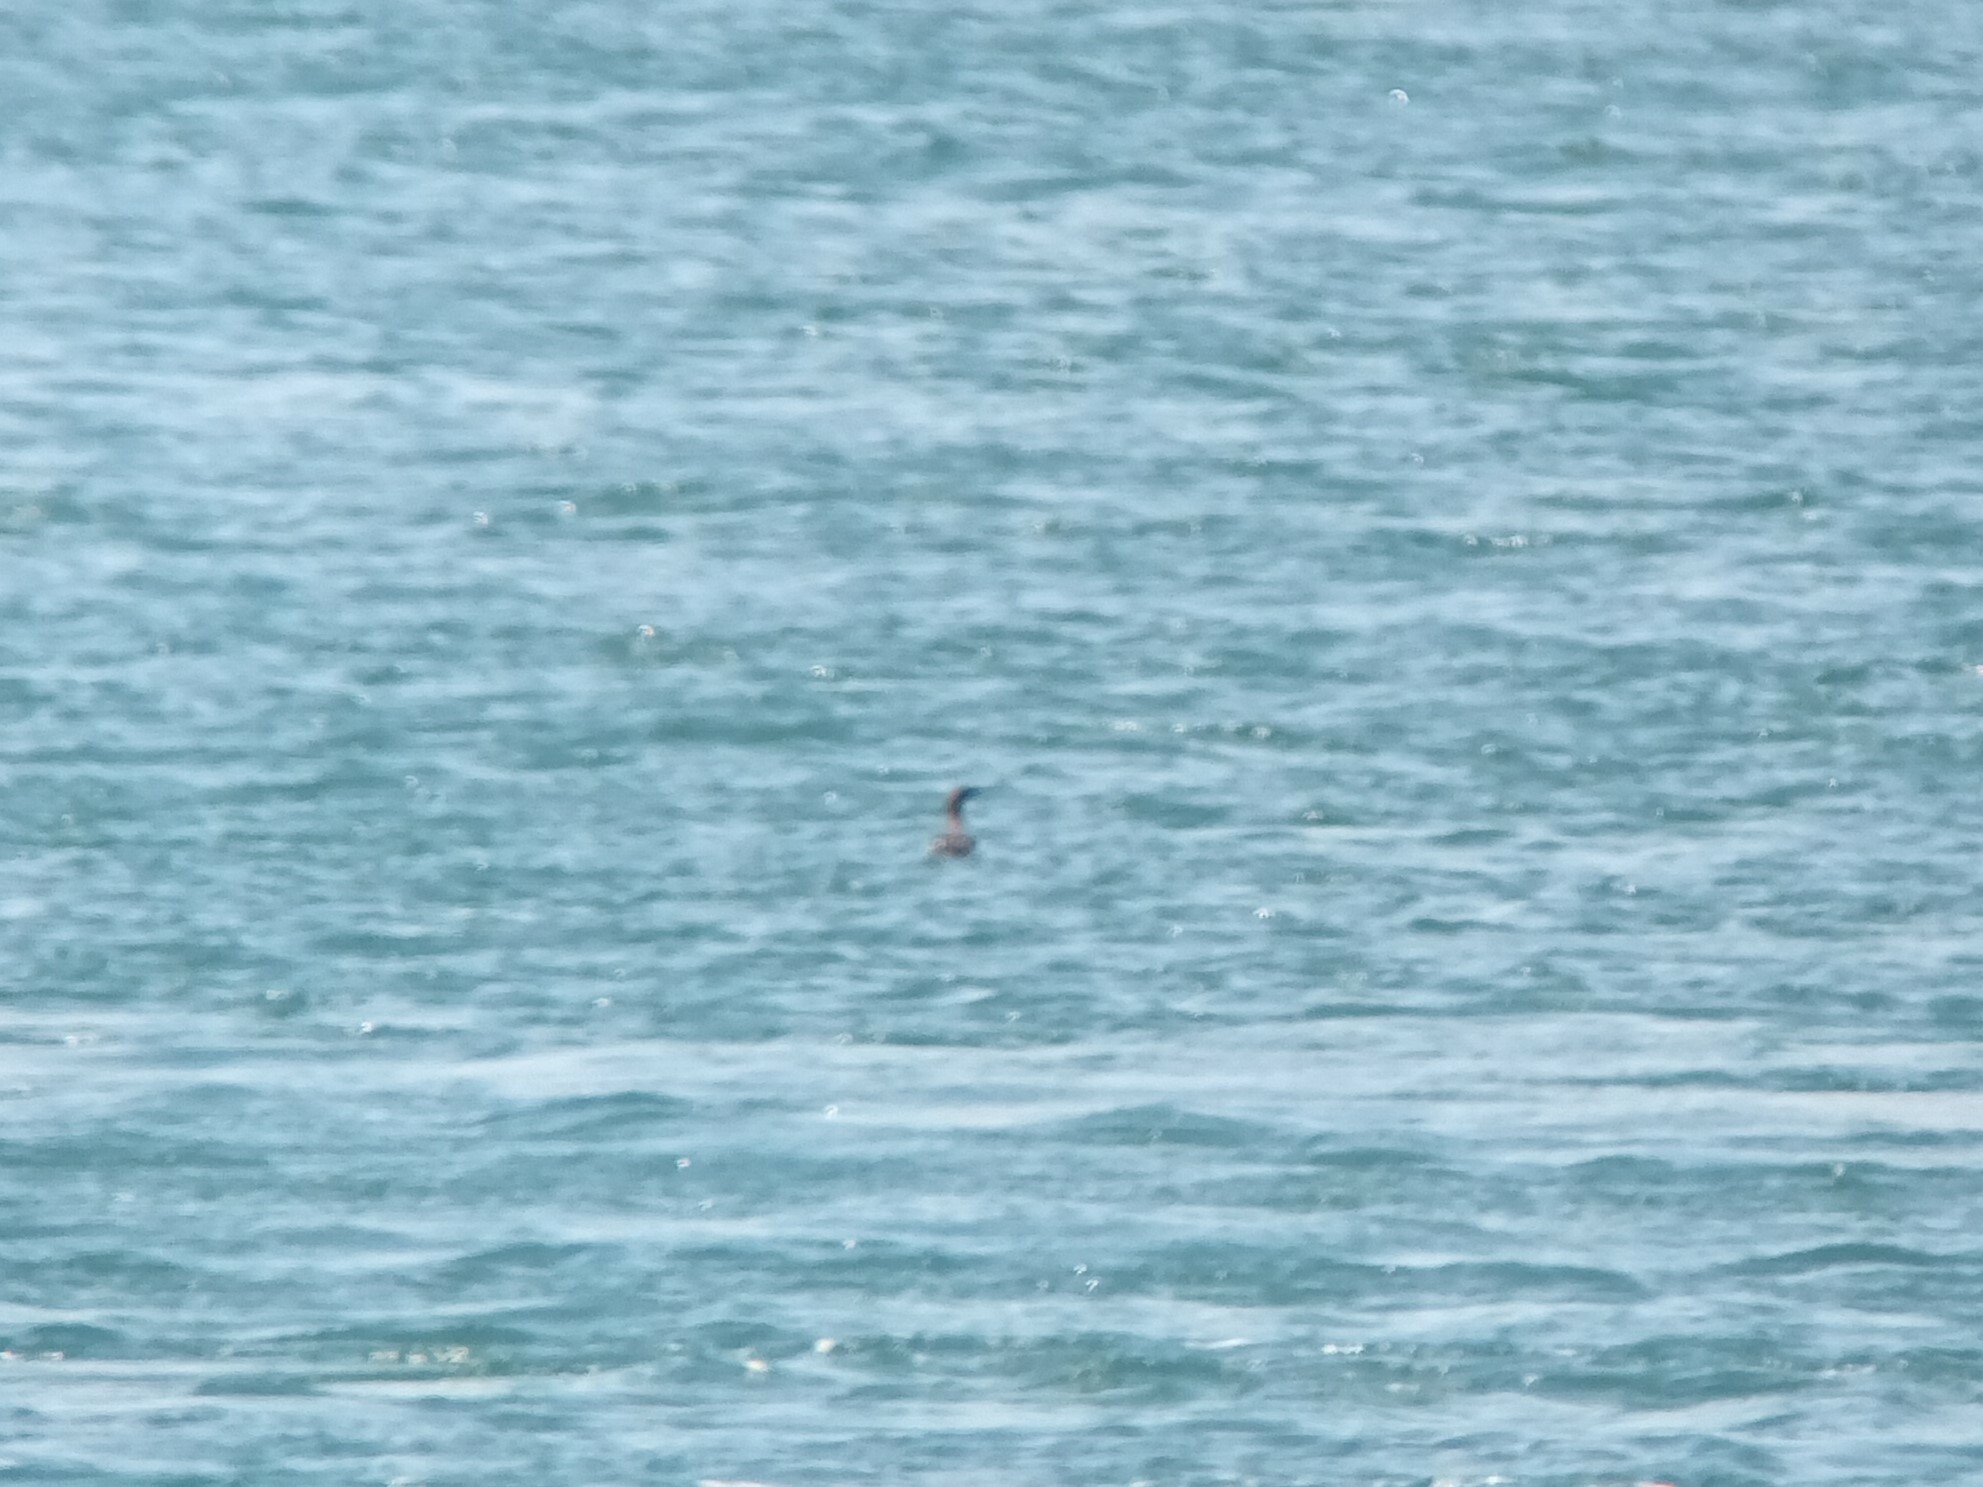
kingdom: Animalia
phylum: Chordata
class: Aves
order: Charadriiformes
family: Alcidae
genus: Uria
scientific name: Uria aalge
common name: Common murre
